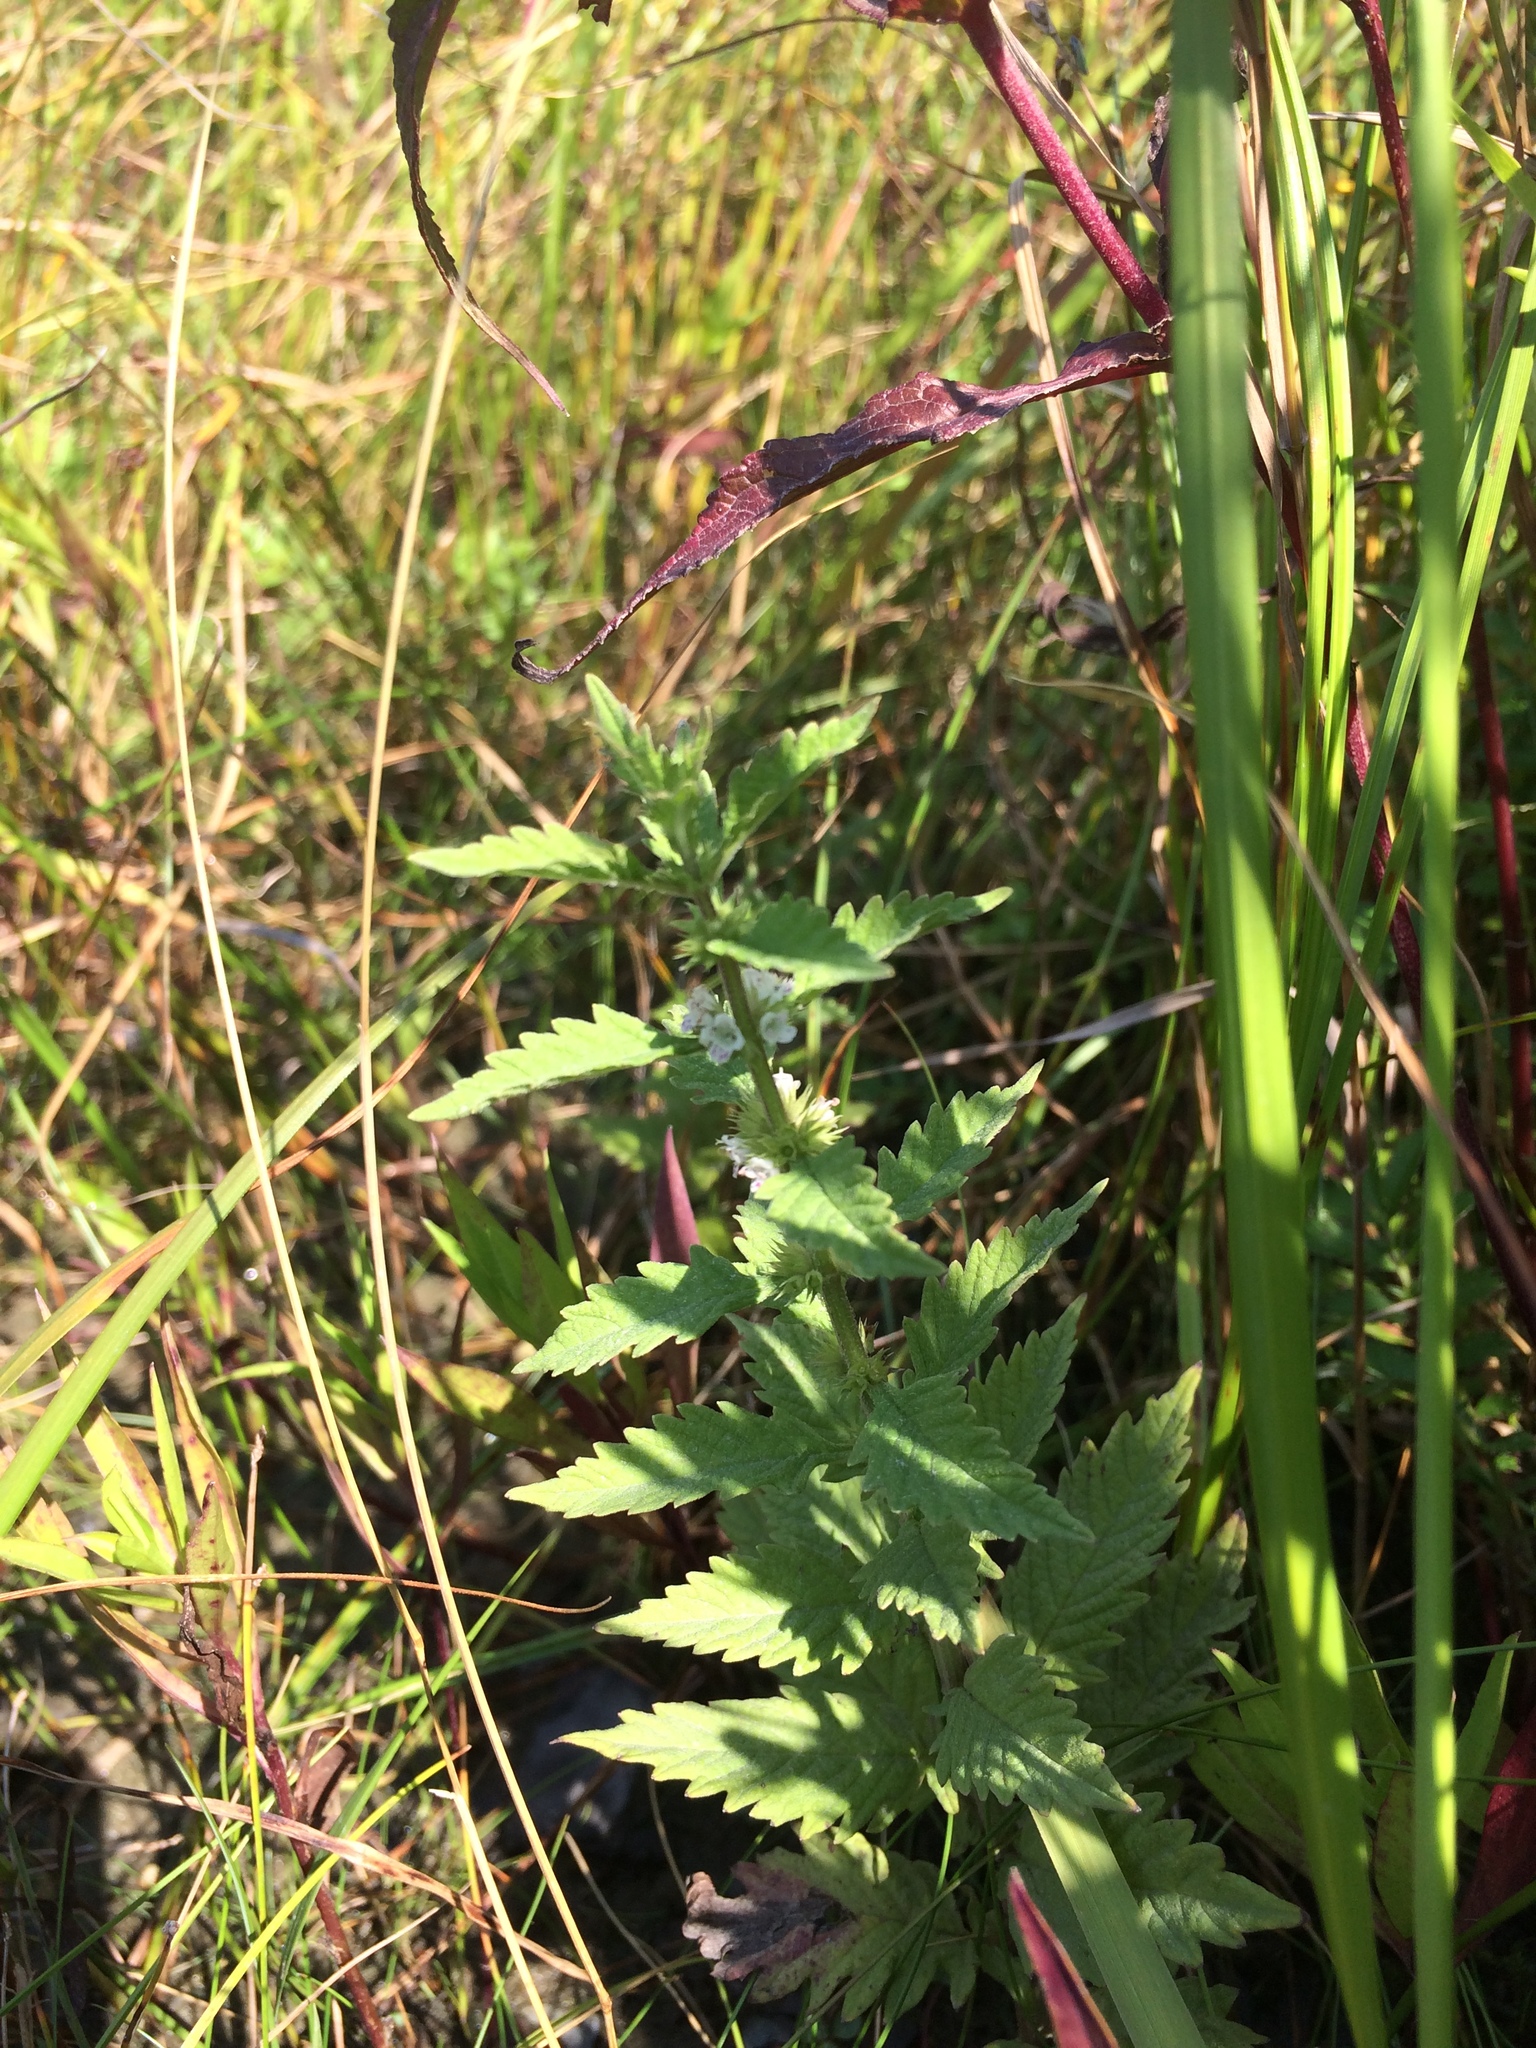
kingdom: Plantae
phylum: Tracheophyta
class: Magnoliopsida
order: Lamiales
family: Lamiaceae
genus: Lycopus
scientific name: Lycopus europaeus
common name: European bugleweed
